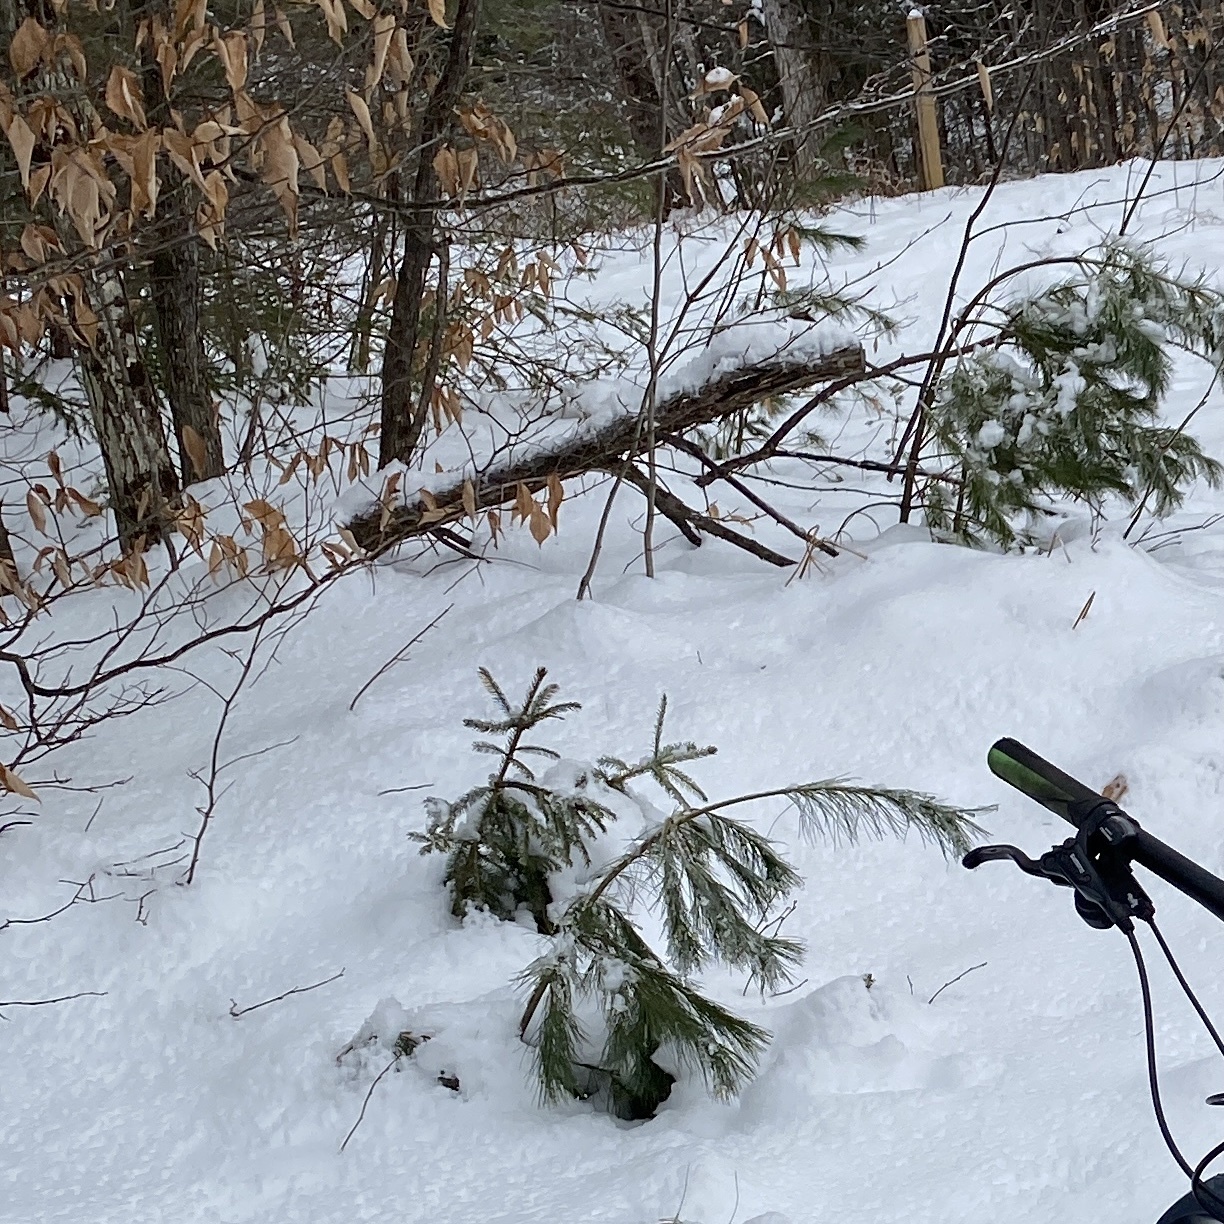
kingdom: Plantae
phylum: Tracheophyta
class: Pinopsida
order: Pinales
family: Pinaceae
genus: Pinus
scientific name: Pinus strobus
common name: Weymouth pine
